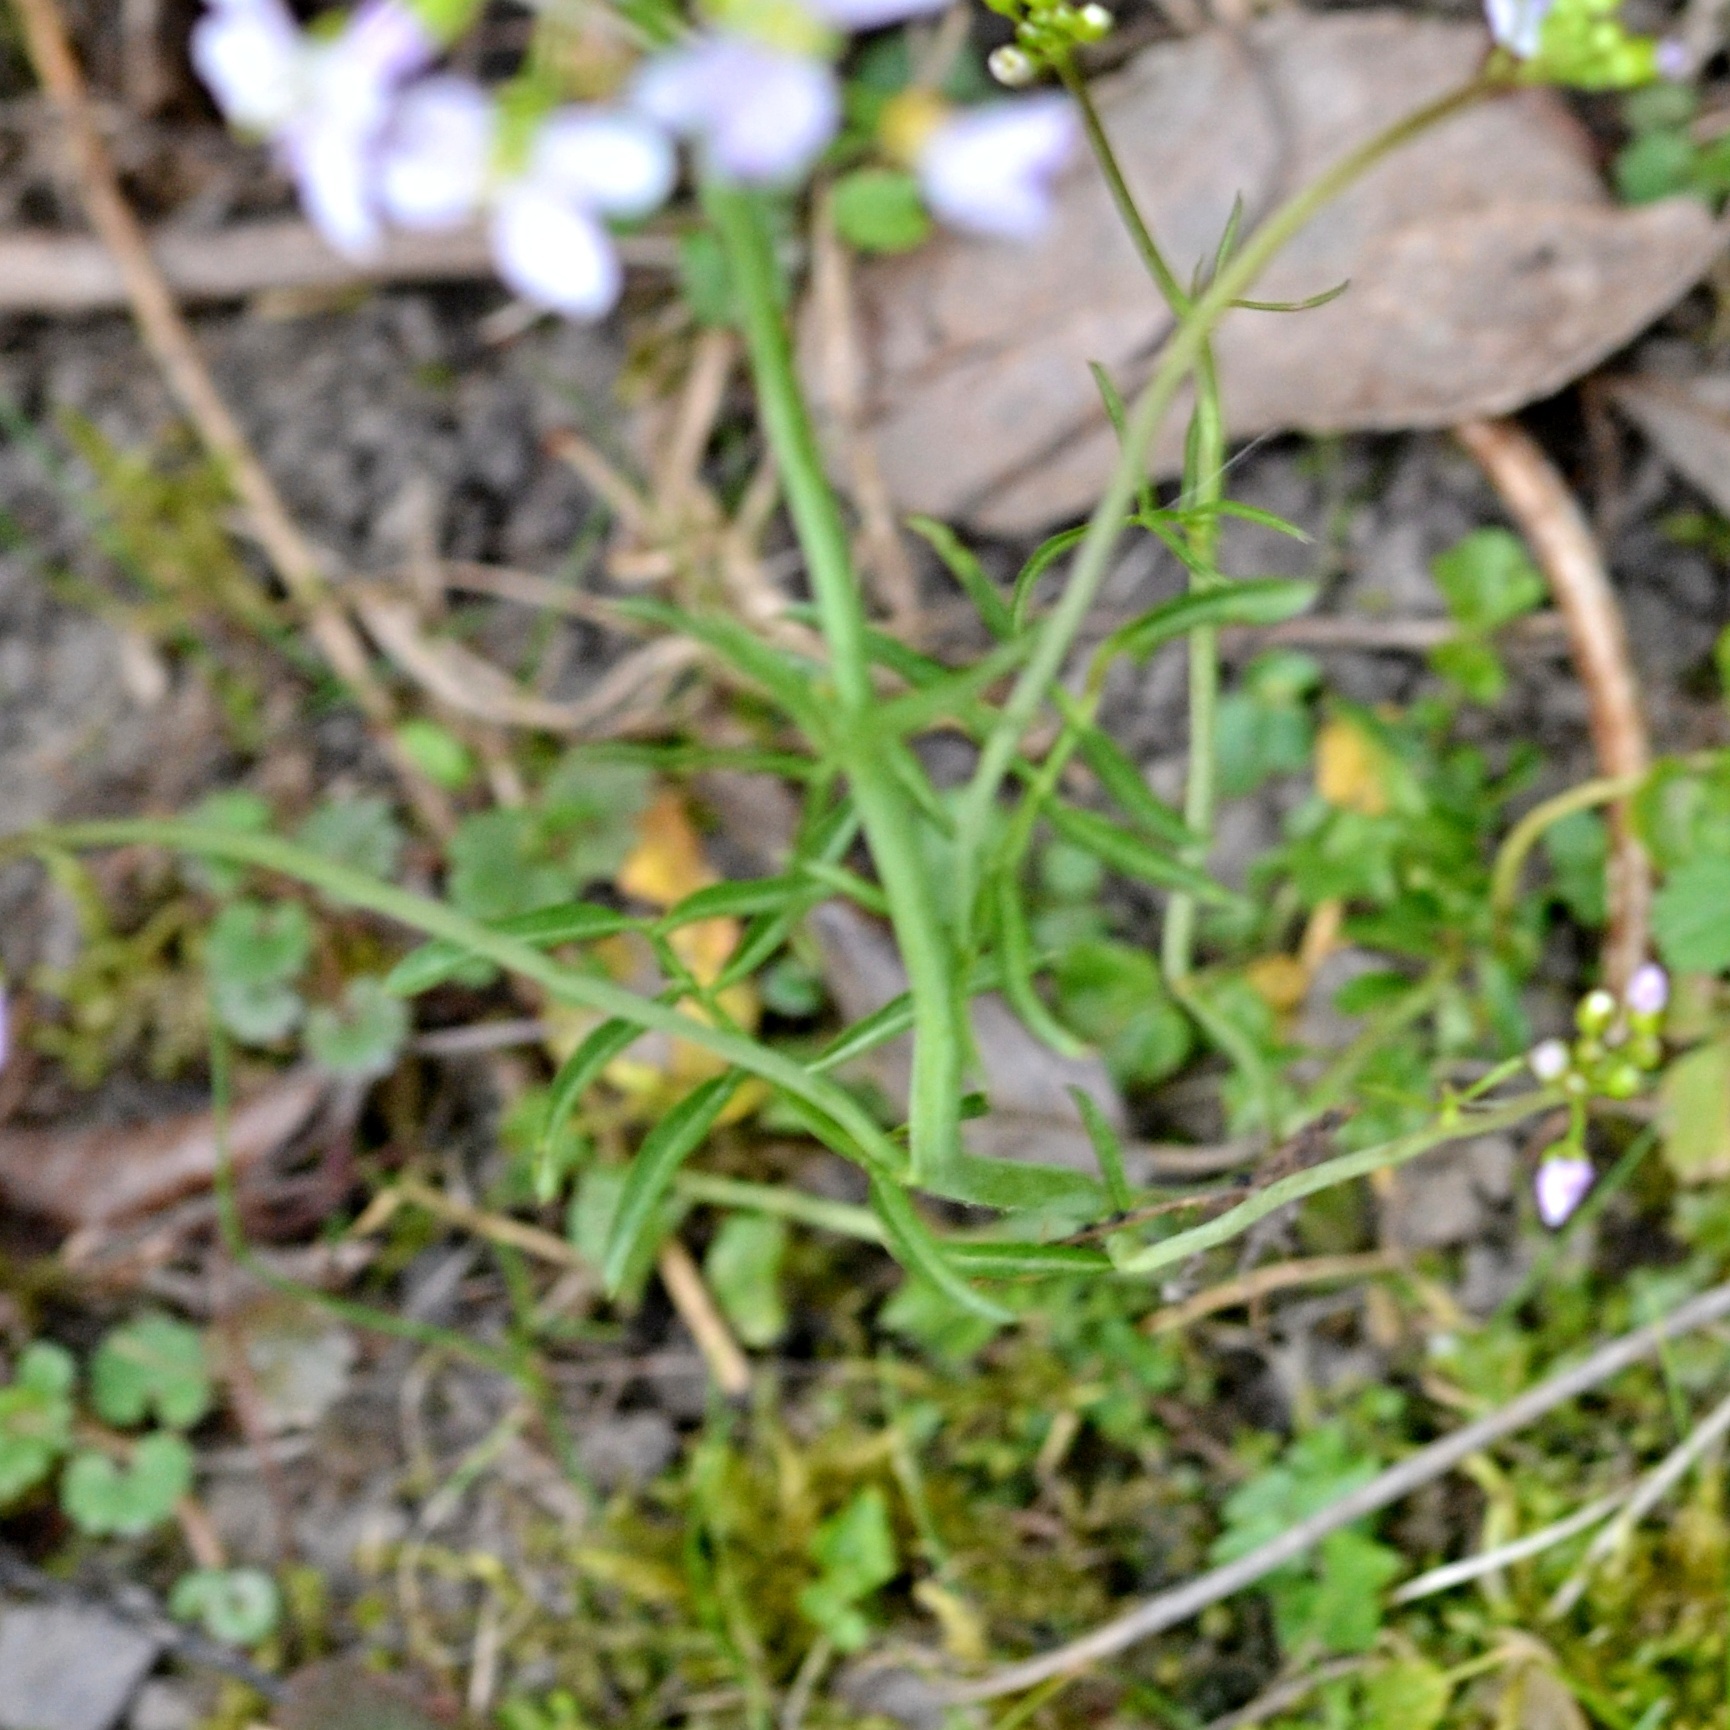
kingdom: Plantae
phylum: Tracheophyta
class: Magnoliopsida
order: Brassicales
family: Brassicaceae
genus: Cardamine
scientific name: Cardamine pratensis
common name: Cuckoo flower
